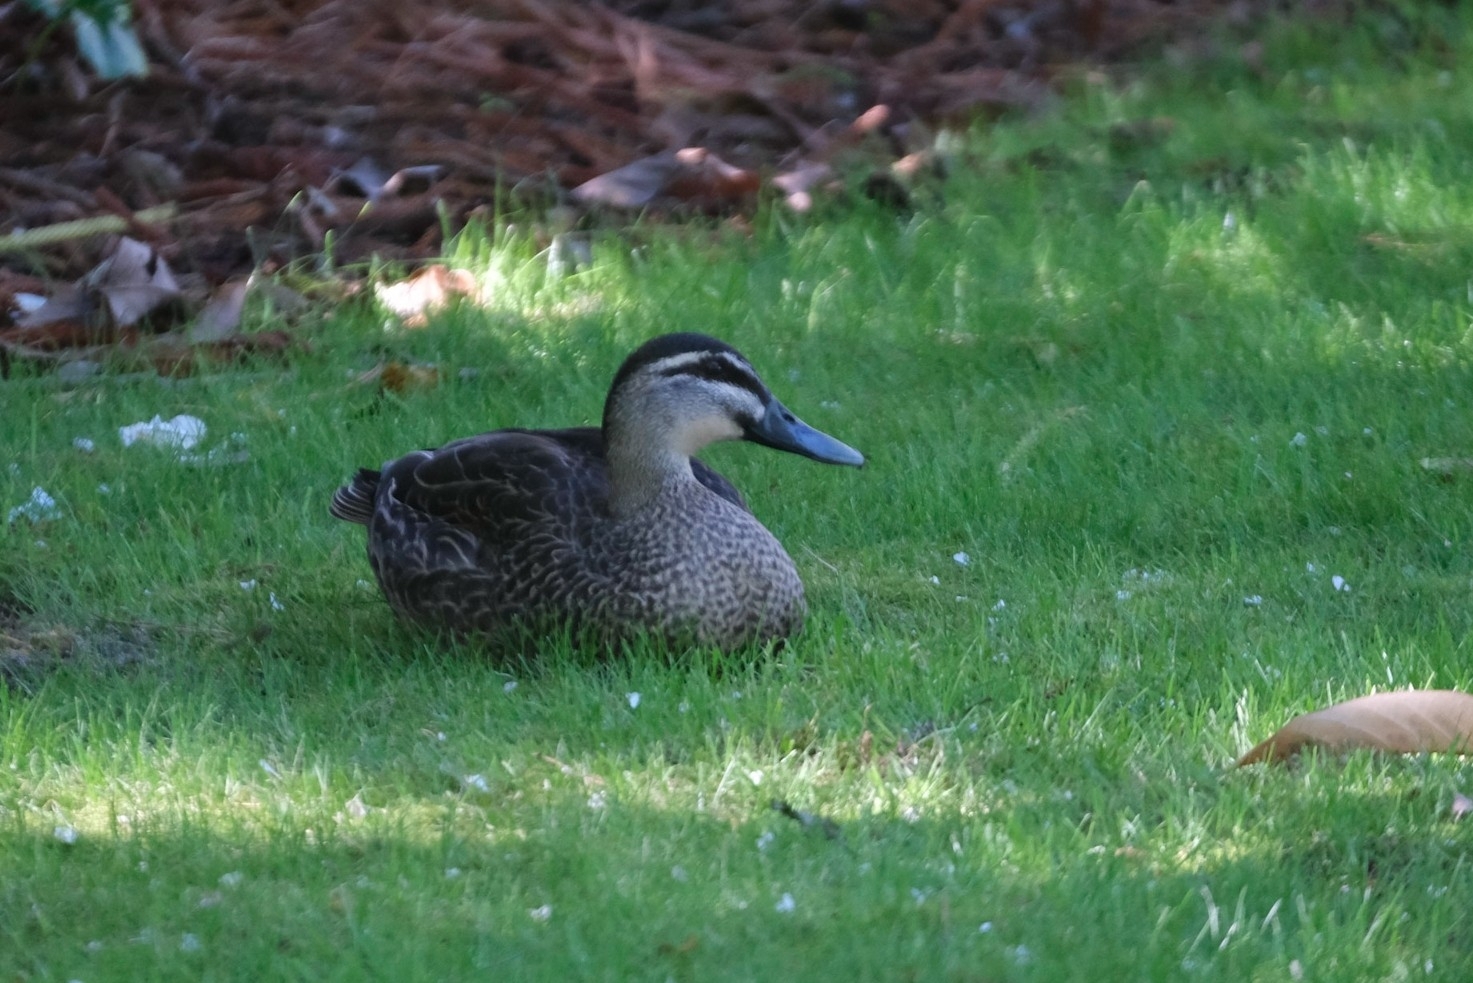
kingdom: Animalia
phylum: Chordata
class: Aves
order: Anseriformes
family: Anatidae
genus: Anas
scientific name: Anas
